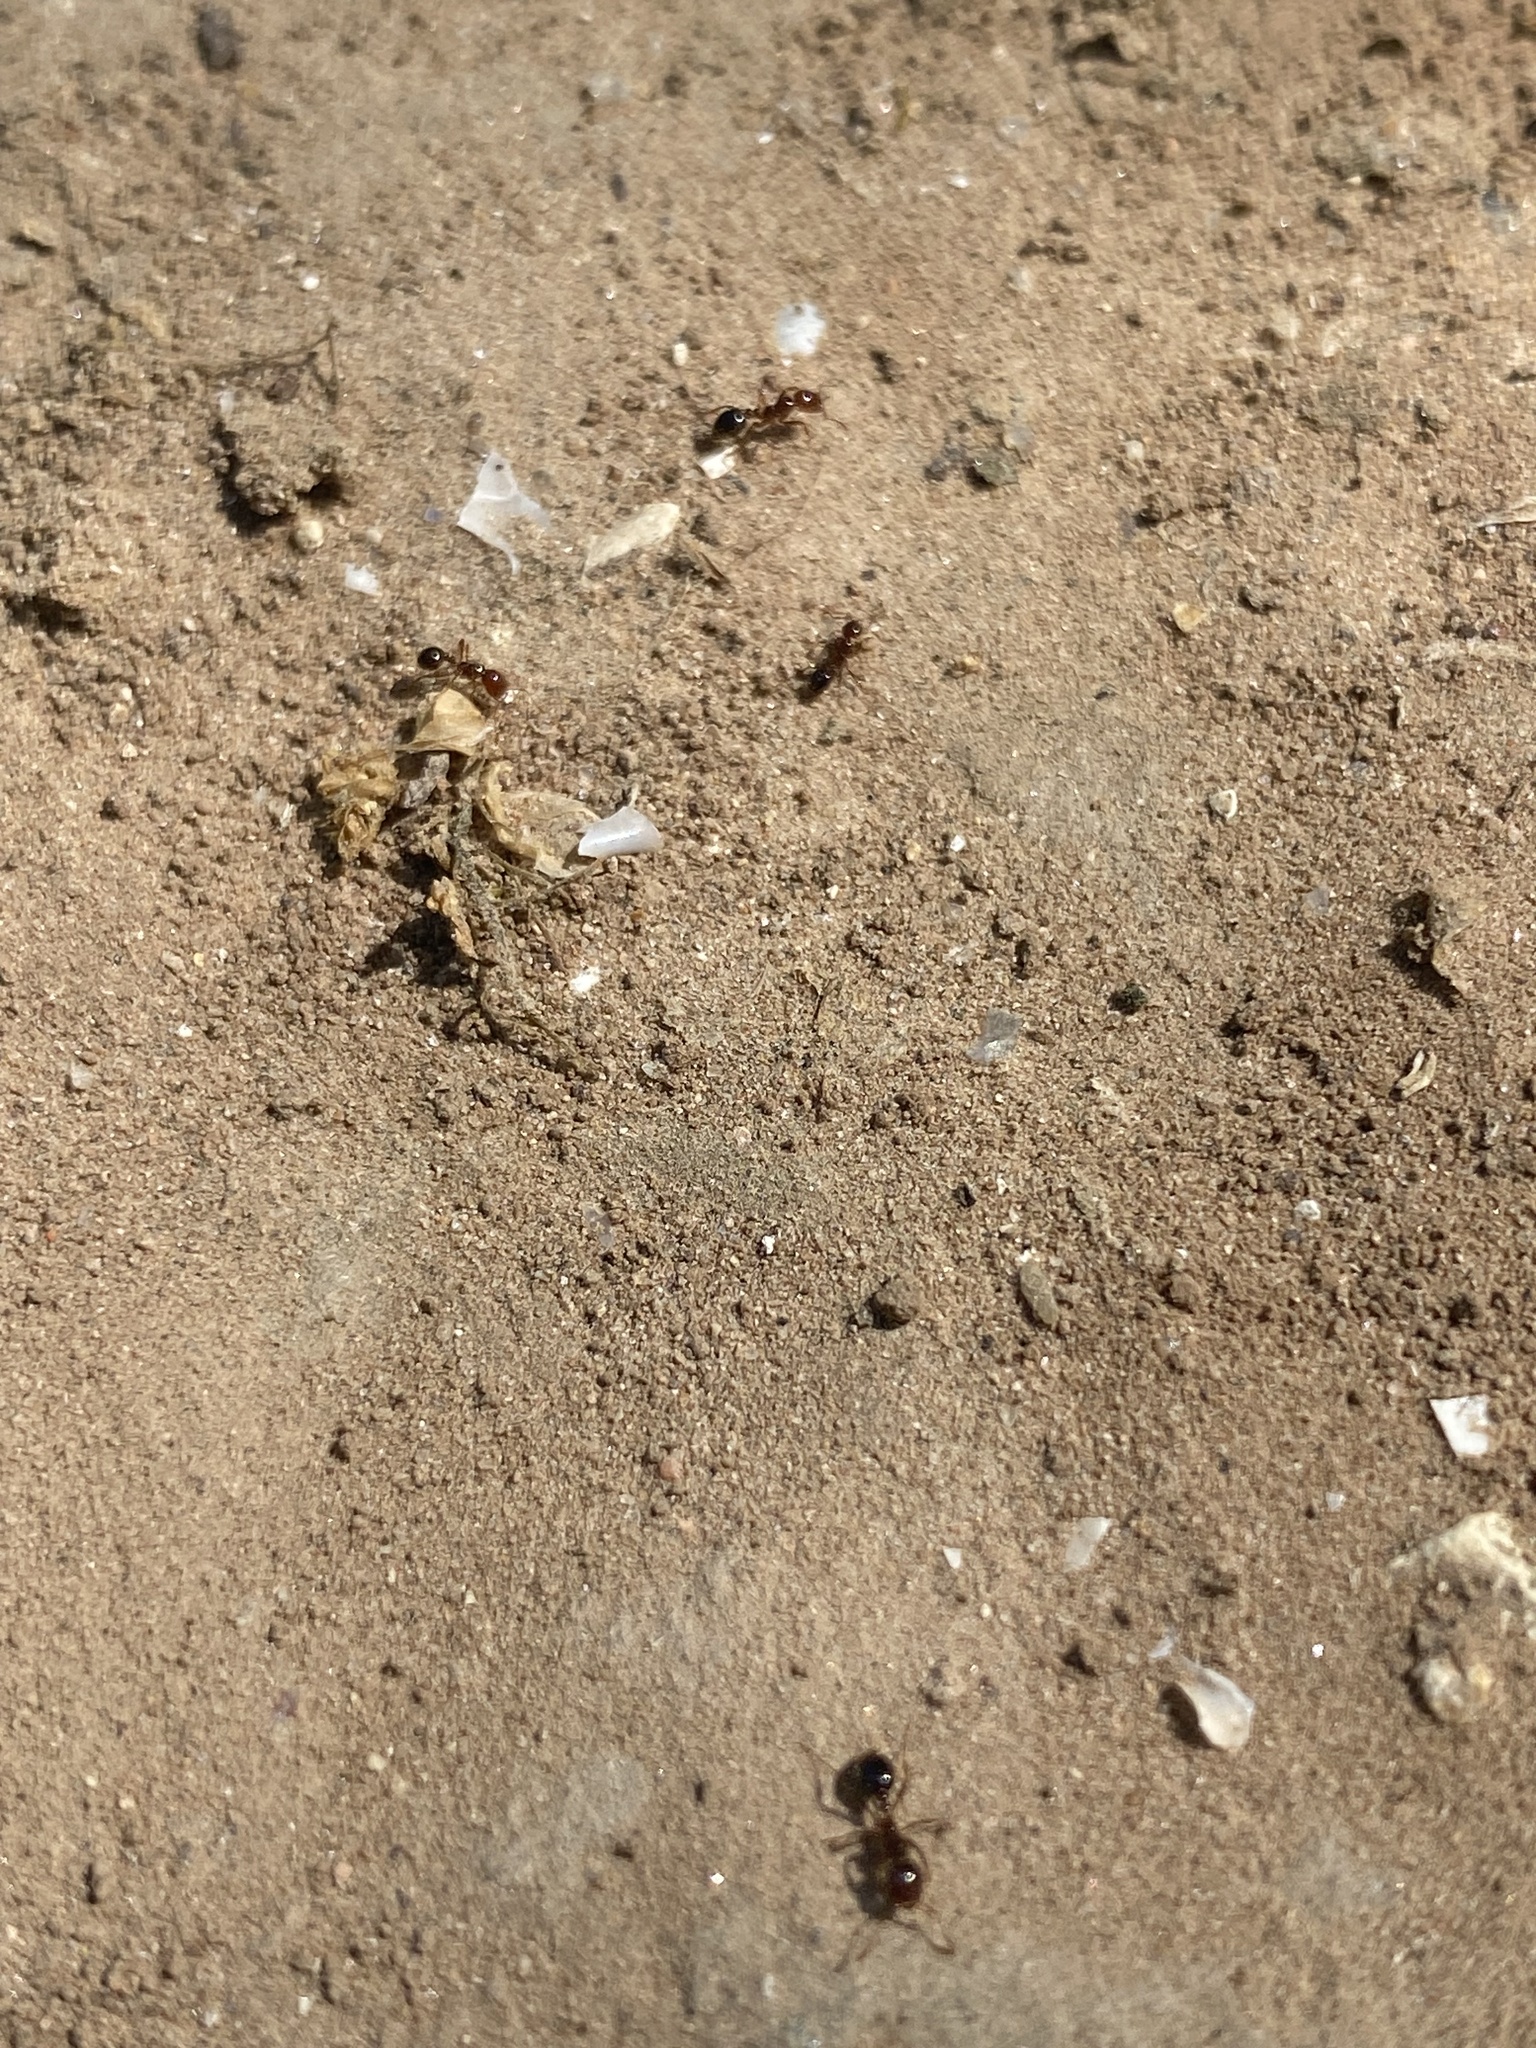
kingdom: Animalia
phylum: Arthropoda
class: Insecta
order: Hymenoptera
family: Formicidae
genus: Solenopsis
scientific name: Solenopsis invicta
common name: Red imported fire ant
